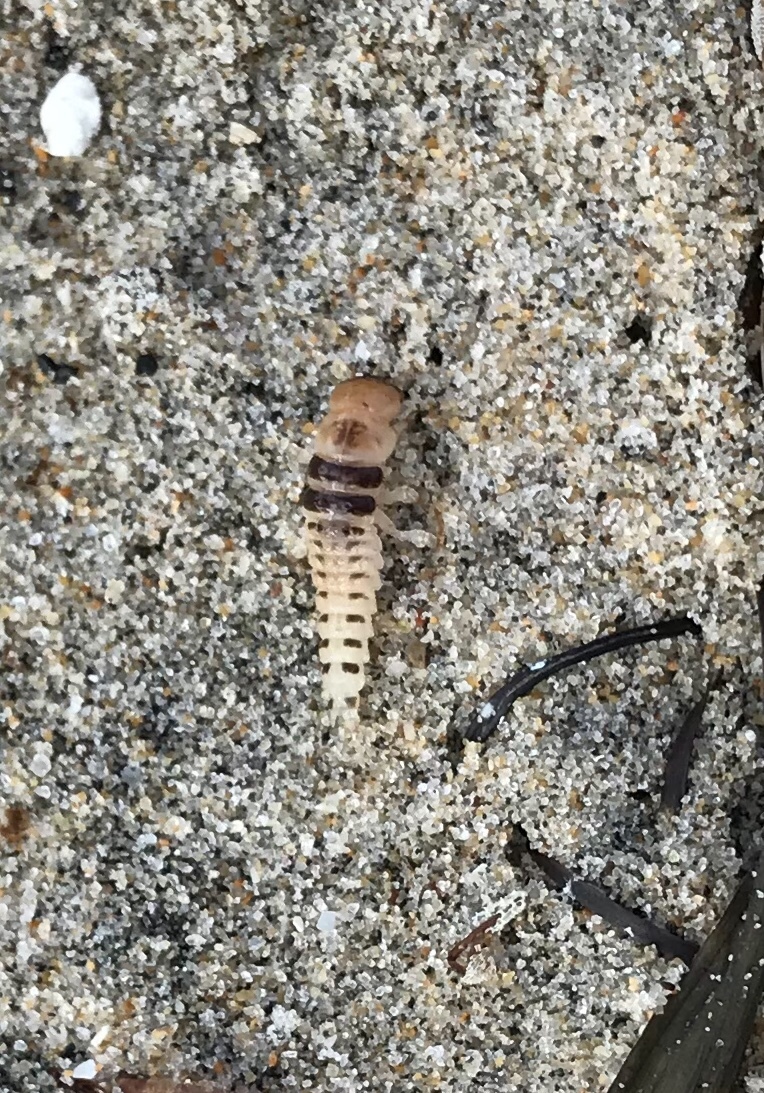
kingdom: Animalia
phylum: Arthropoda
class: Insecta
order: Coleoptera
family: Staphylinidae
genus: Thinopinus
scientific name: Thinopinus pictus
